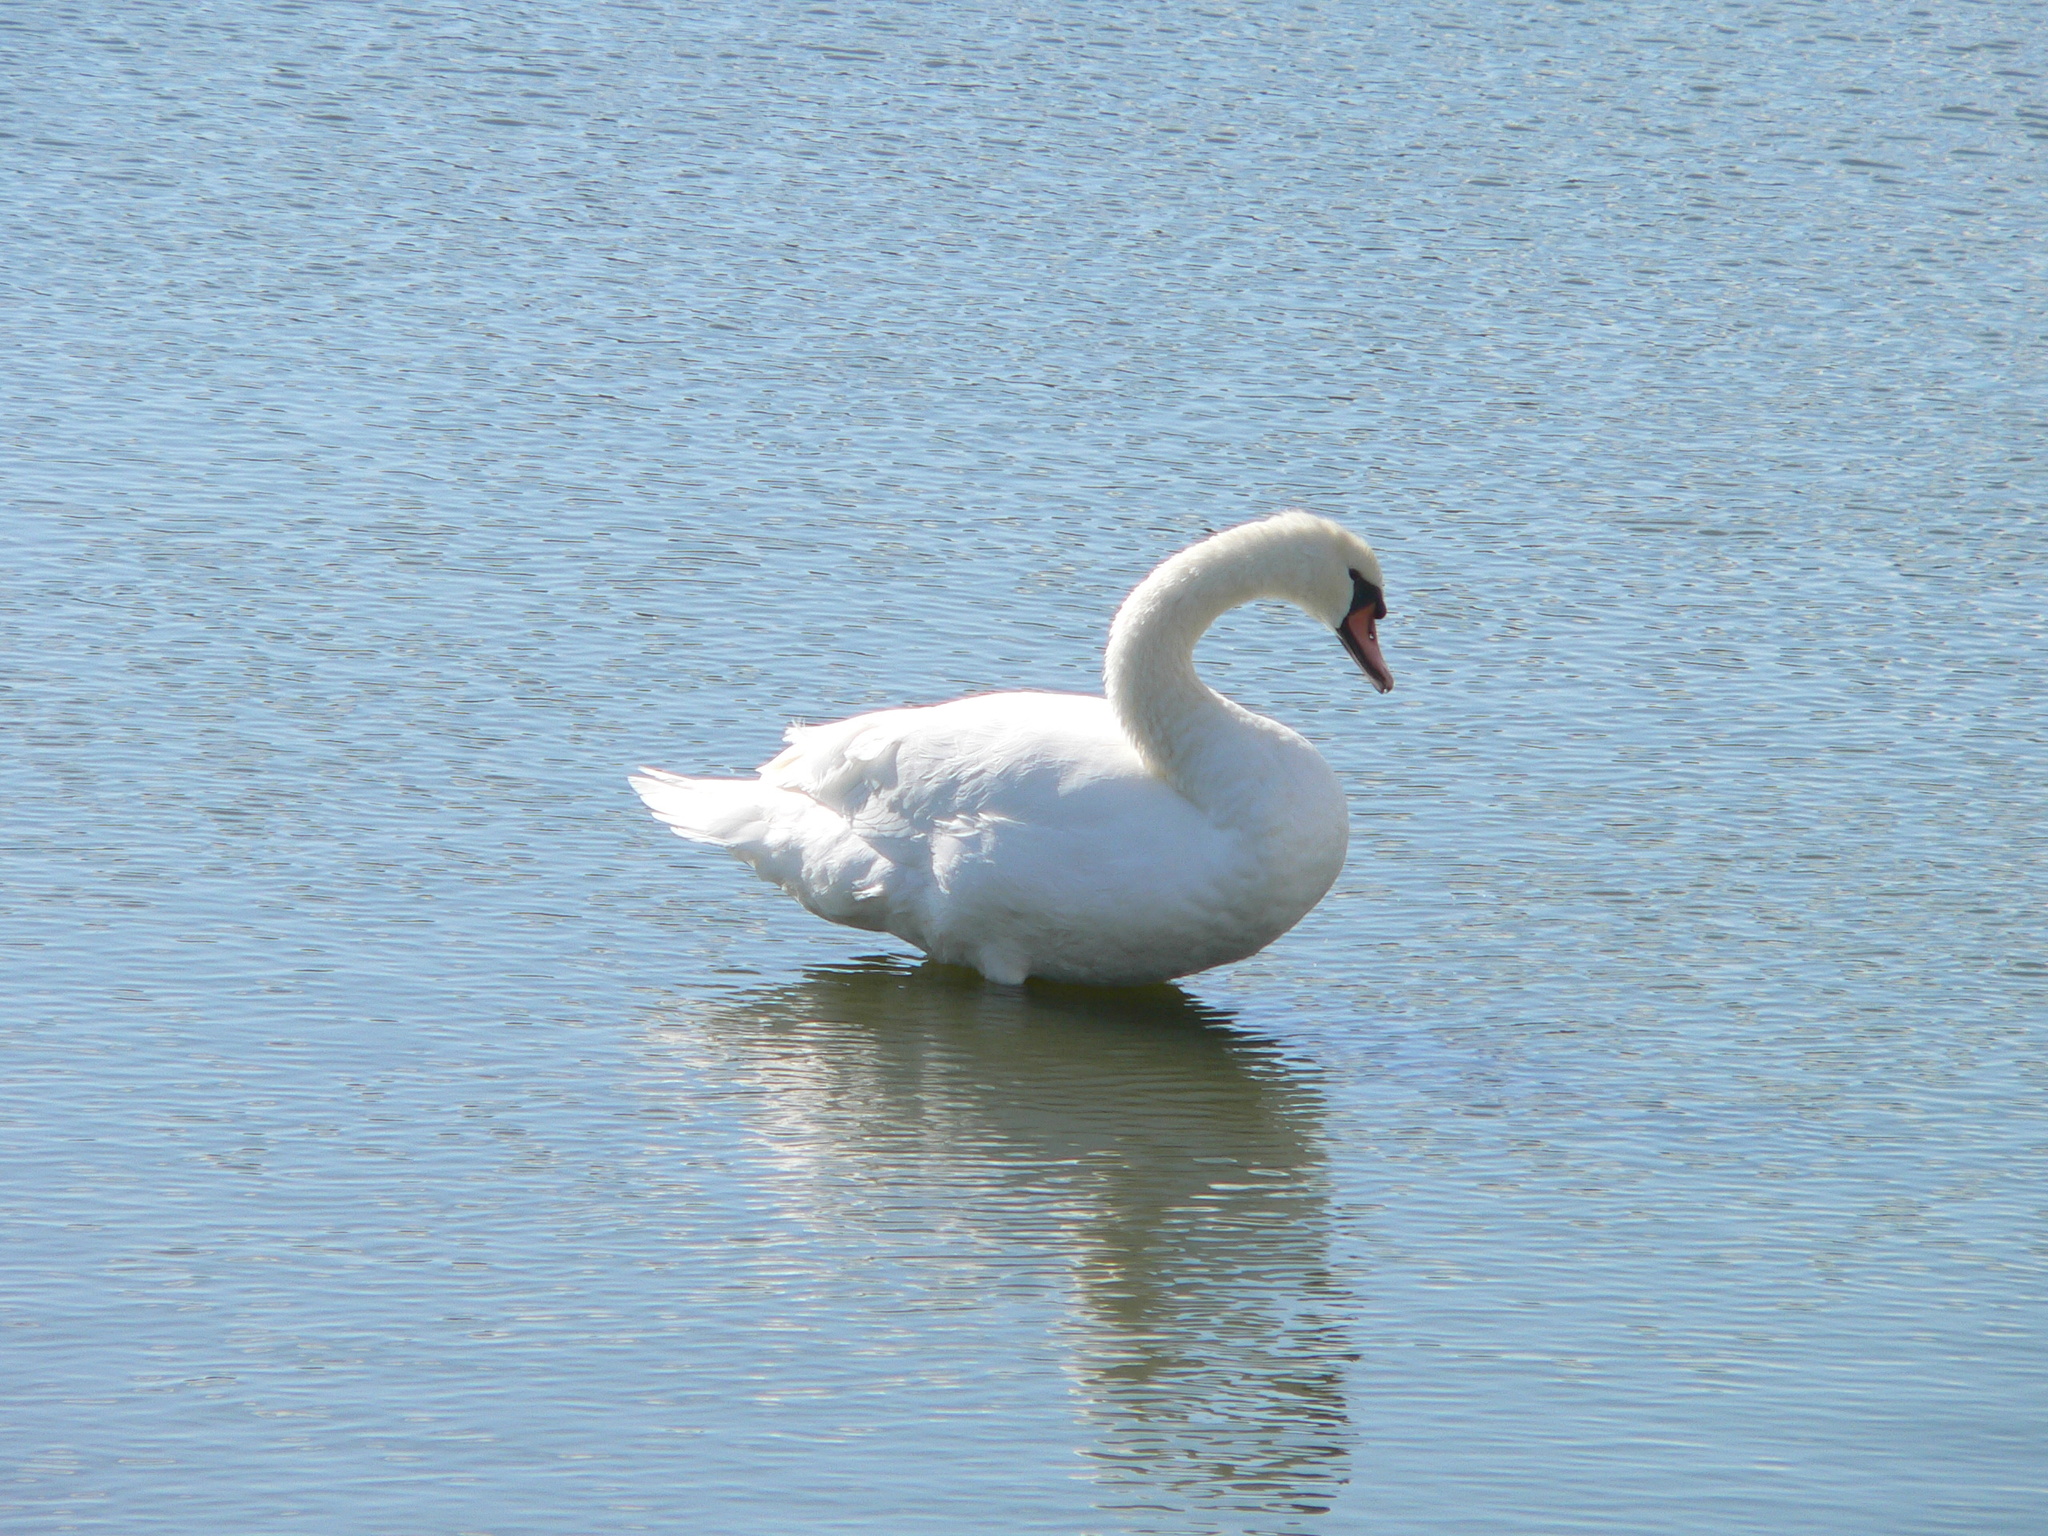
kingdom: Animalia
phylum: Chordata
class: Aves
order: Anseriformes
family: Anatidae
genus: Cygnus
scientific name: Cygnus olor
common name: Mute swan
